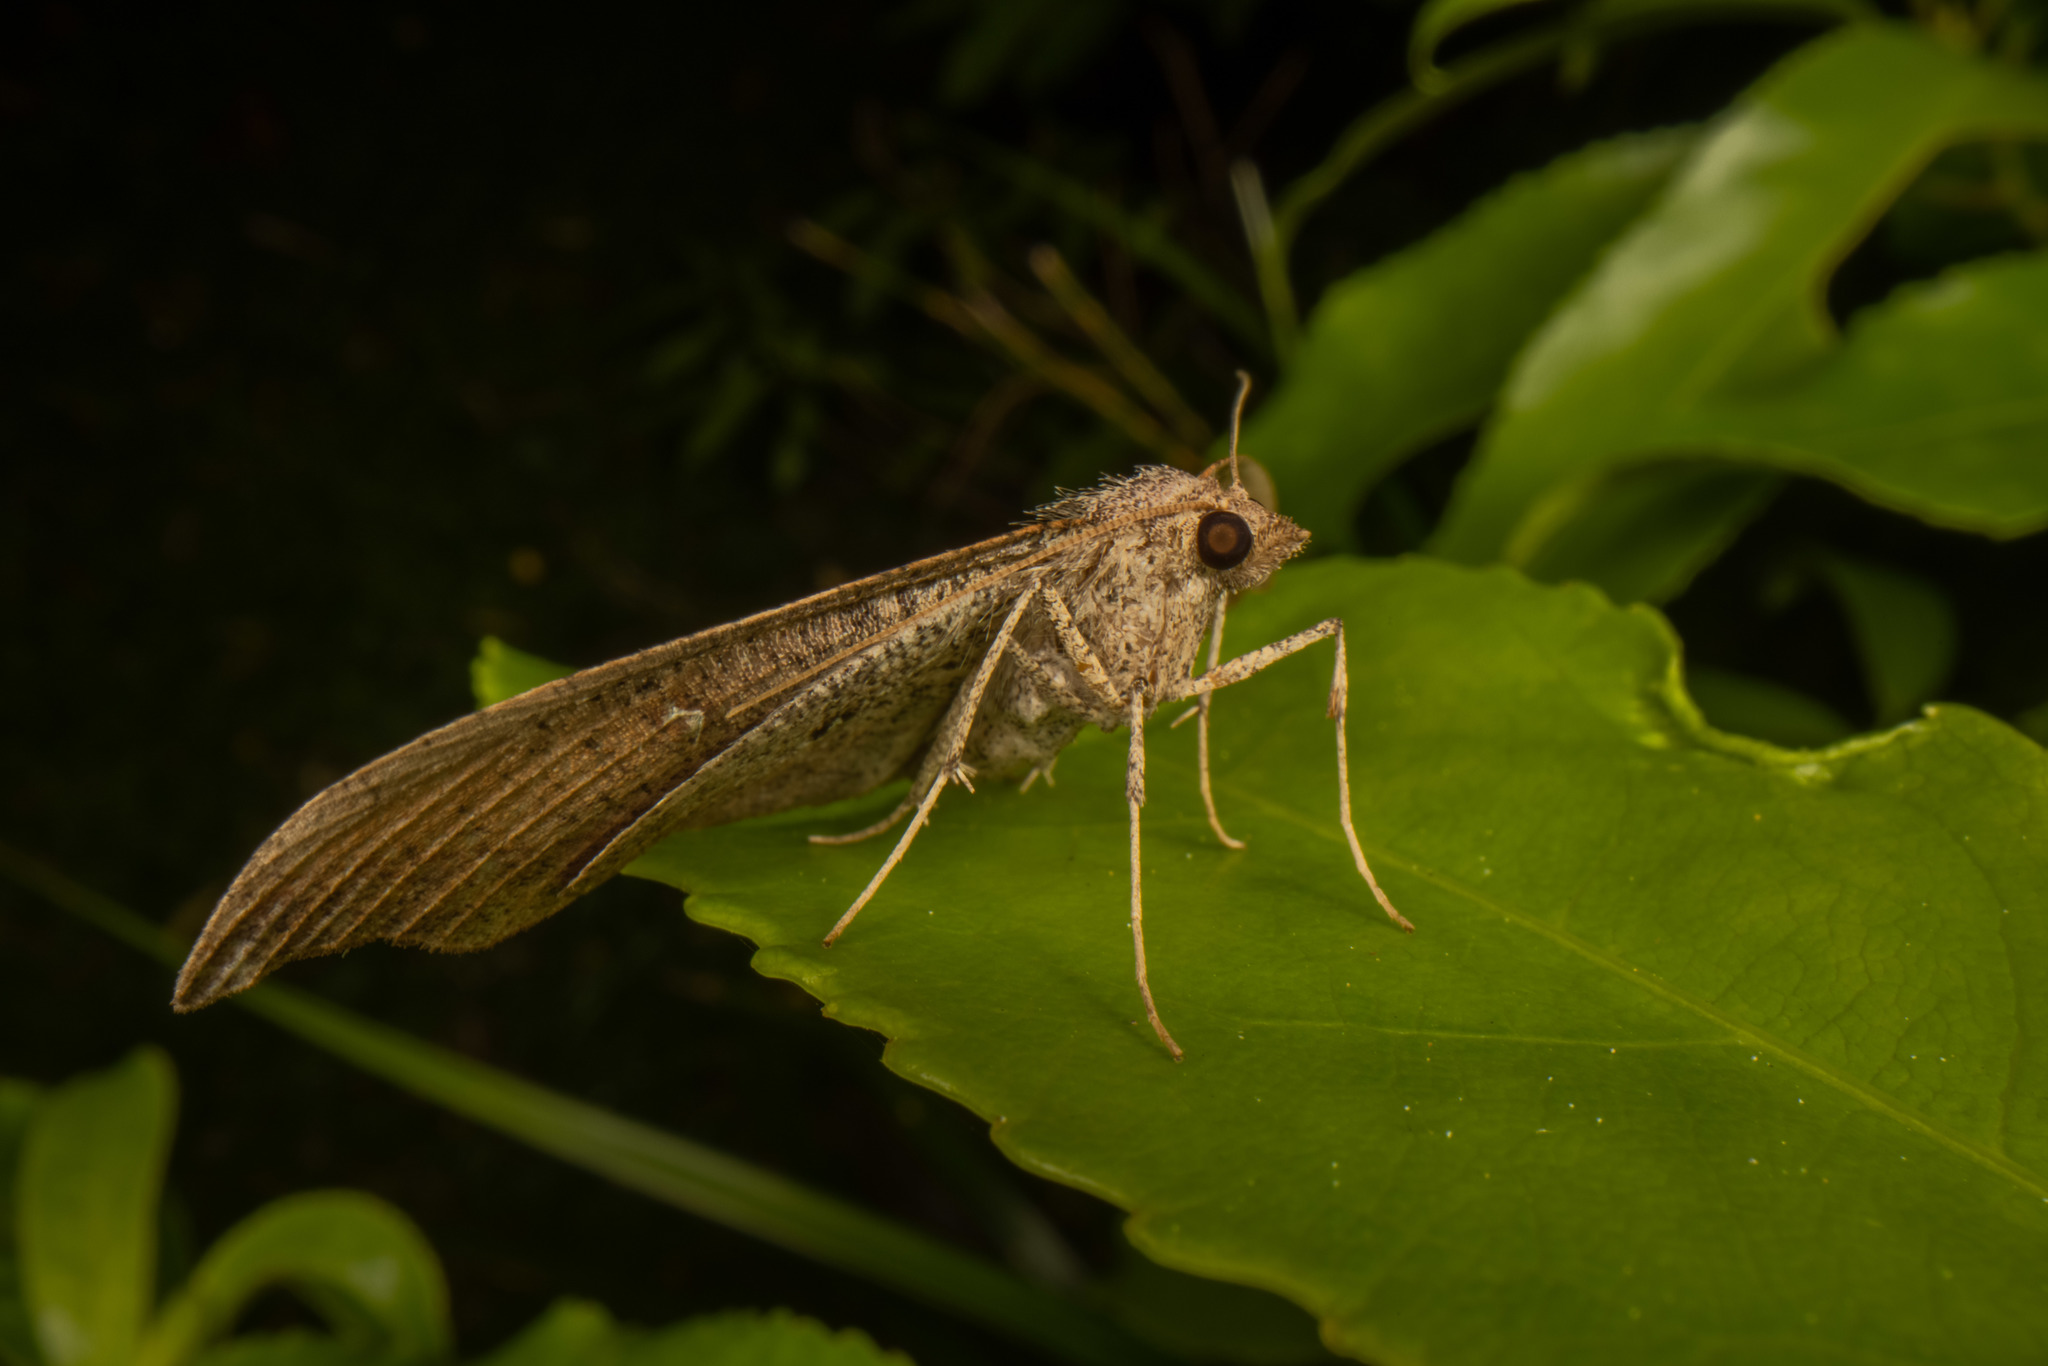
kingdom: Animalia
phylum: Arthropoda
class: Insecta
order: Lepidoptera
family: Geometridae
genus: Sarisa
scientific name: Sarisa muriferata
